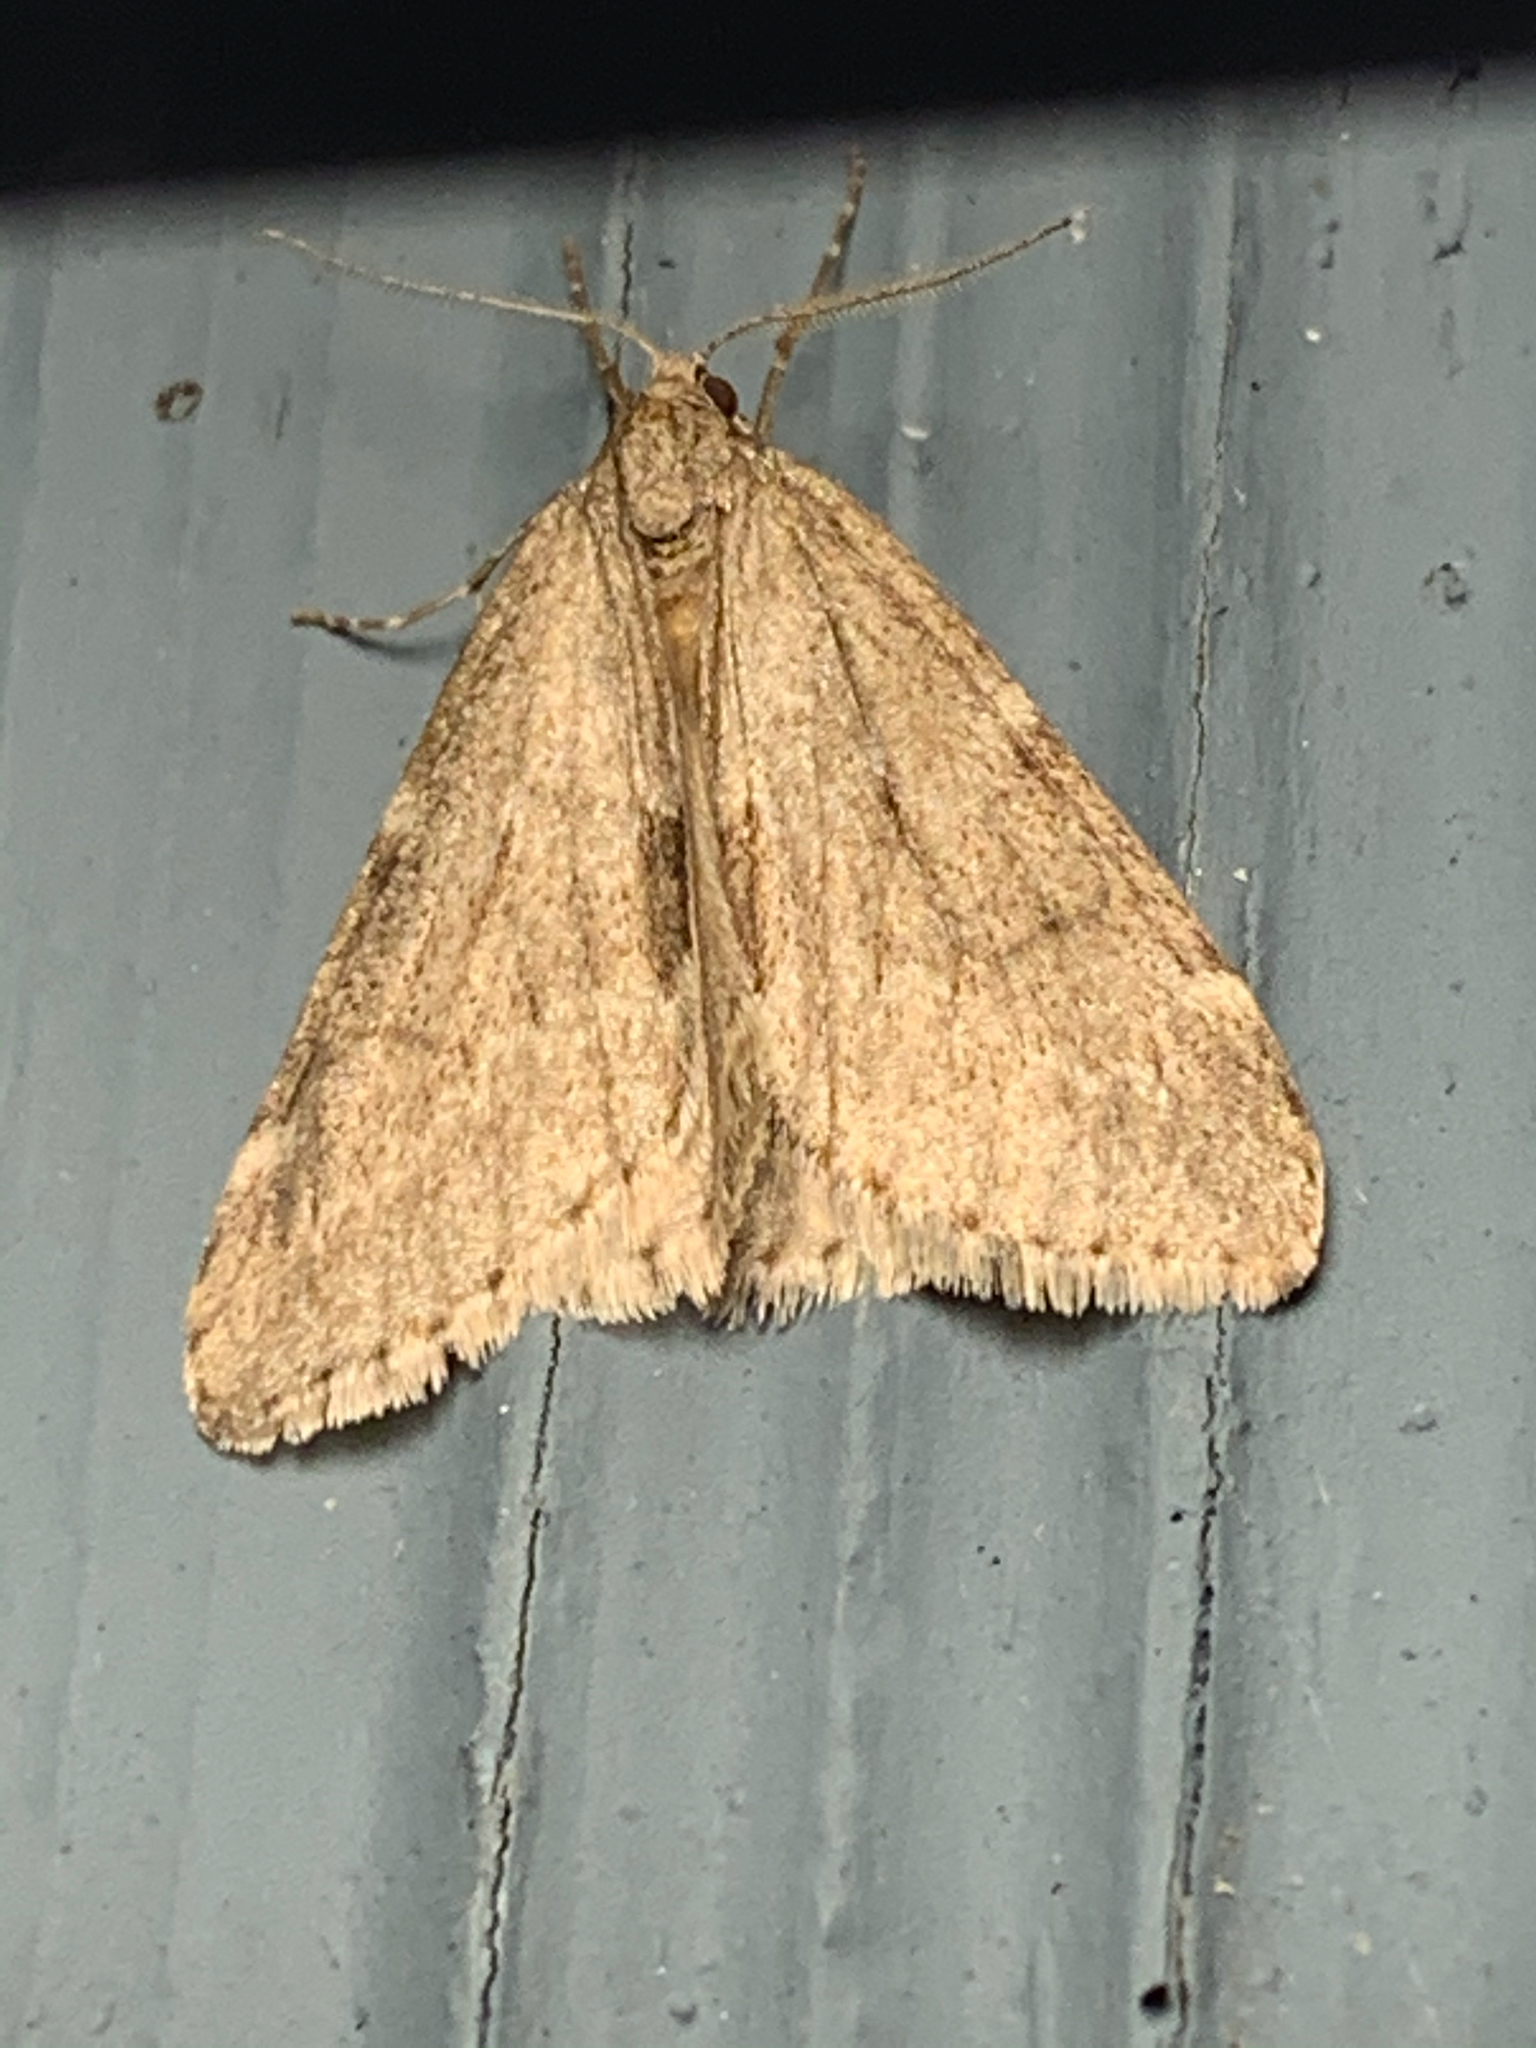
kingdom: Animalia
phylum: Arthropoda
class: Insecta
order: Lepidoptera
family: Geometridae
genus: Alsophila
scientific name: Alsophila pometaria
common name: Fall cankerworm
